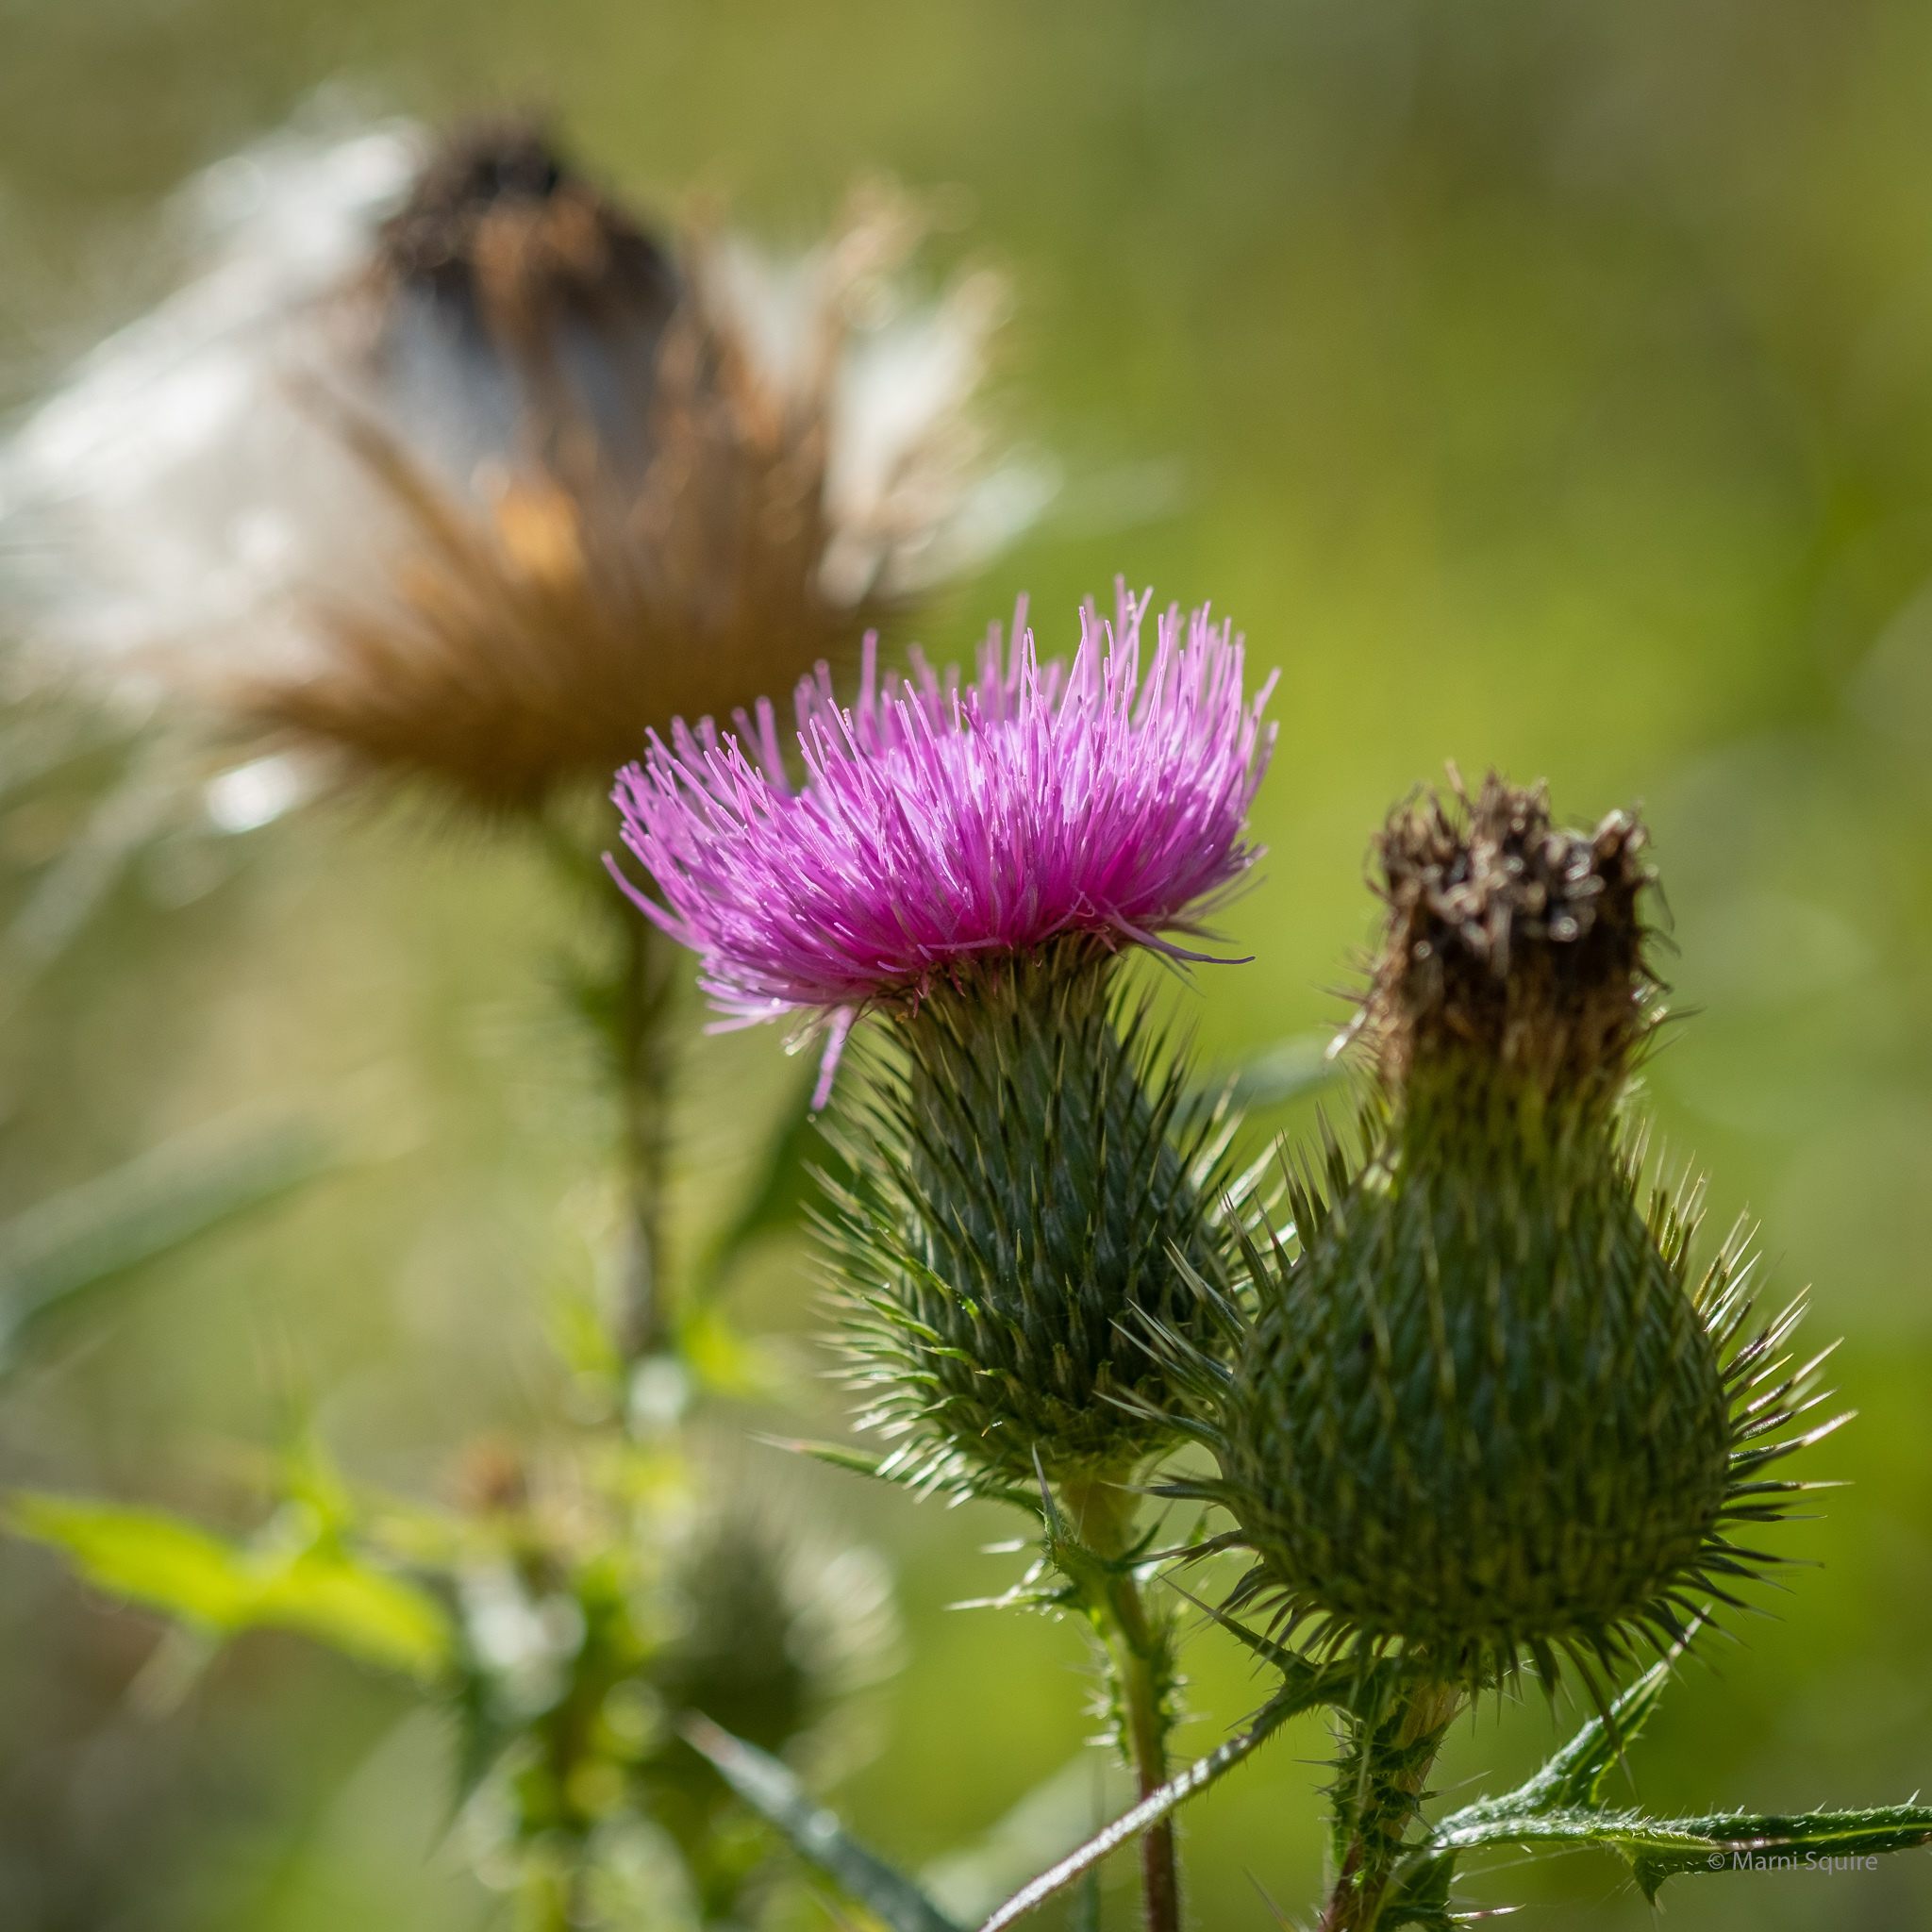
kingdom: Plantae
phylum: Tracheophyta
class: Magnoliopsida
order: Asterales
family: Asteraceae
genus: Cirsium
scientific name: Cirsium vulgare
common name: Bull thistle
